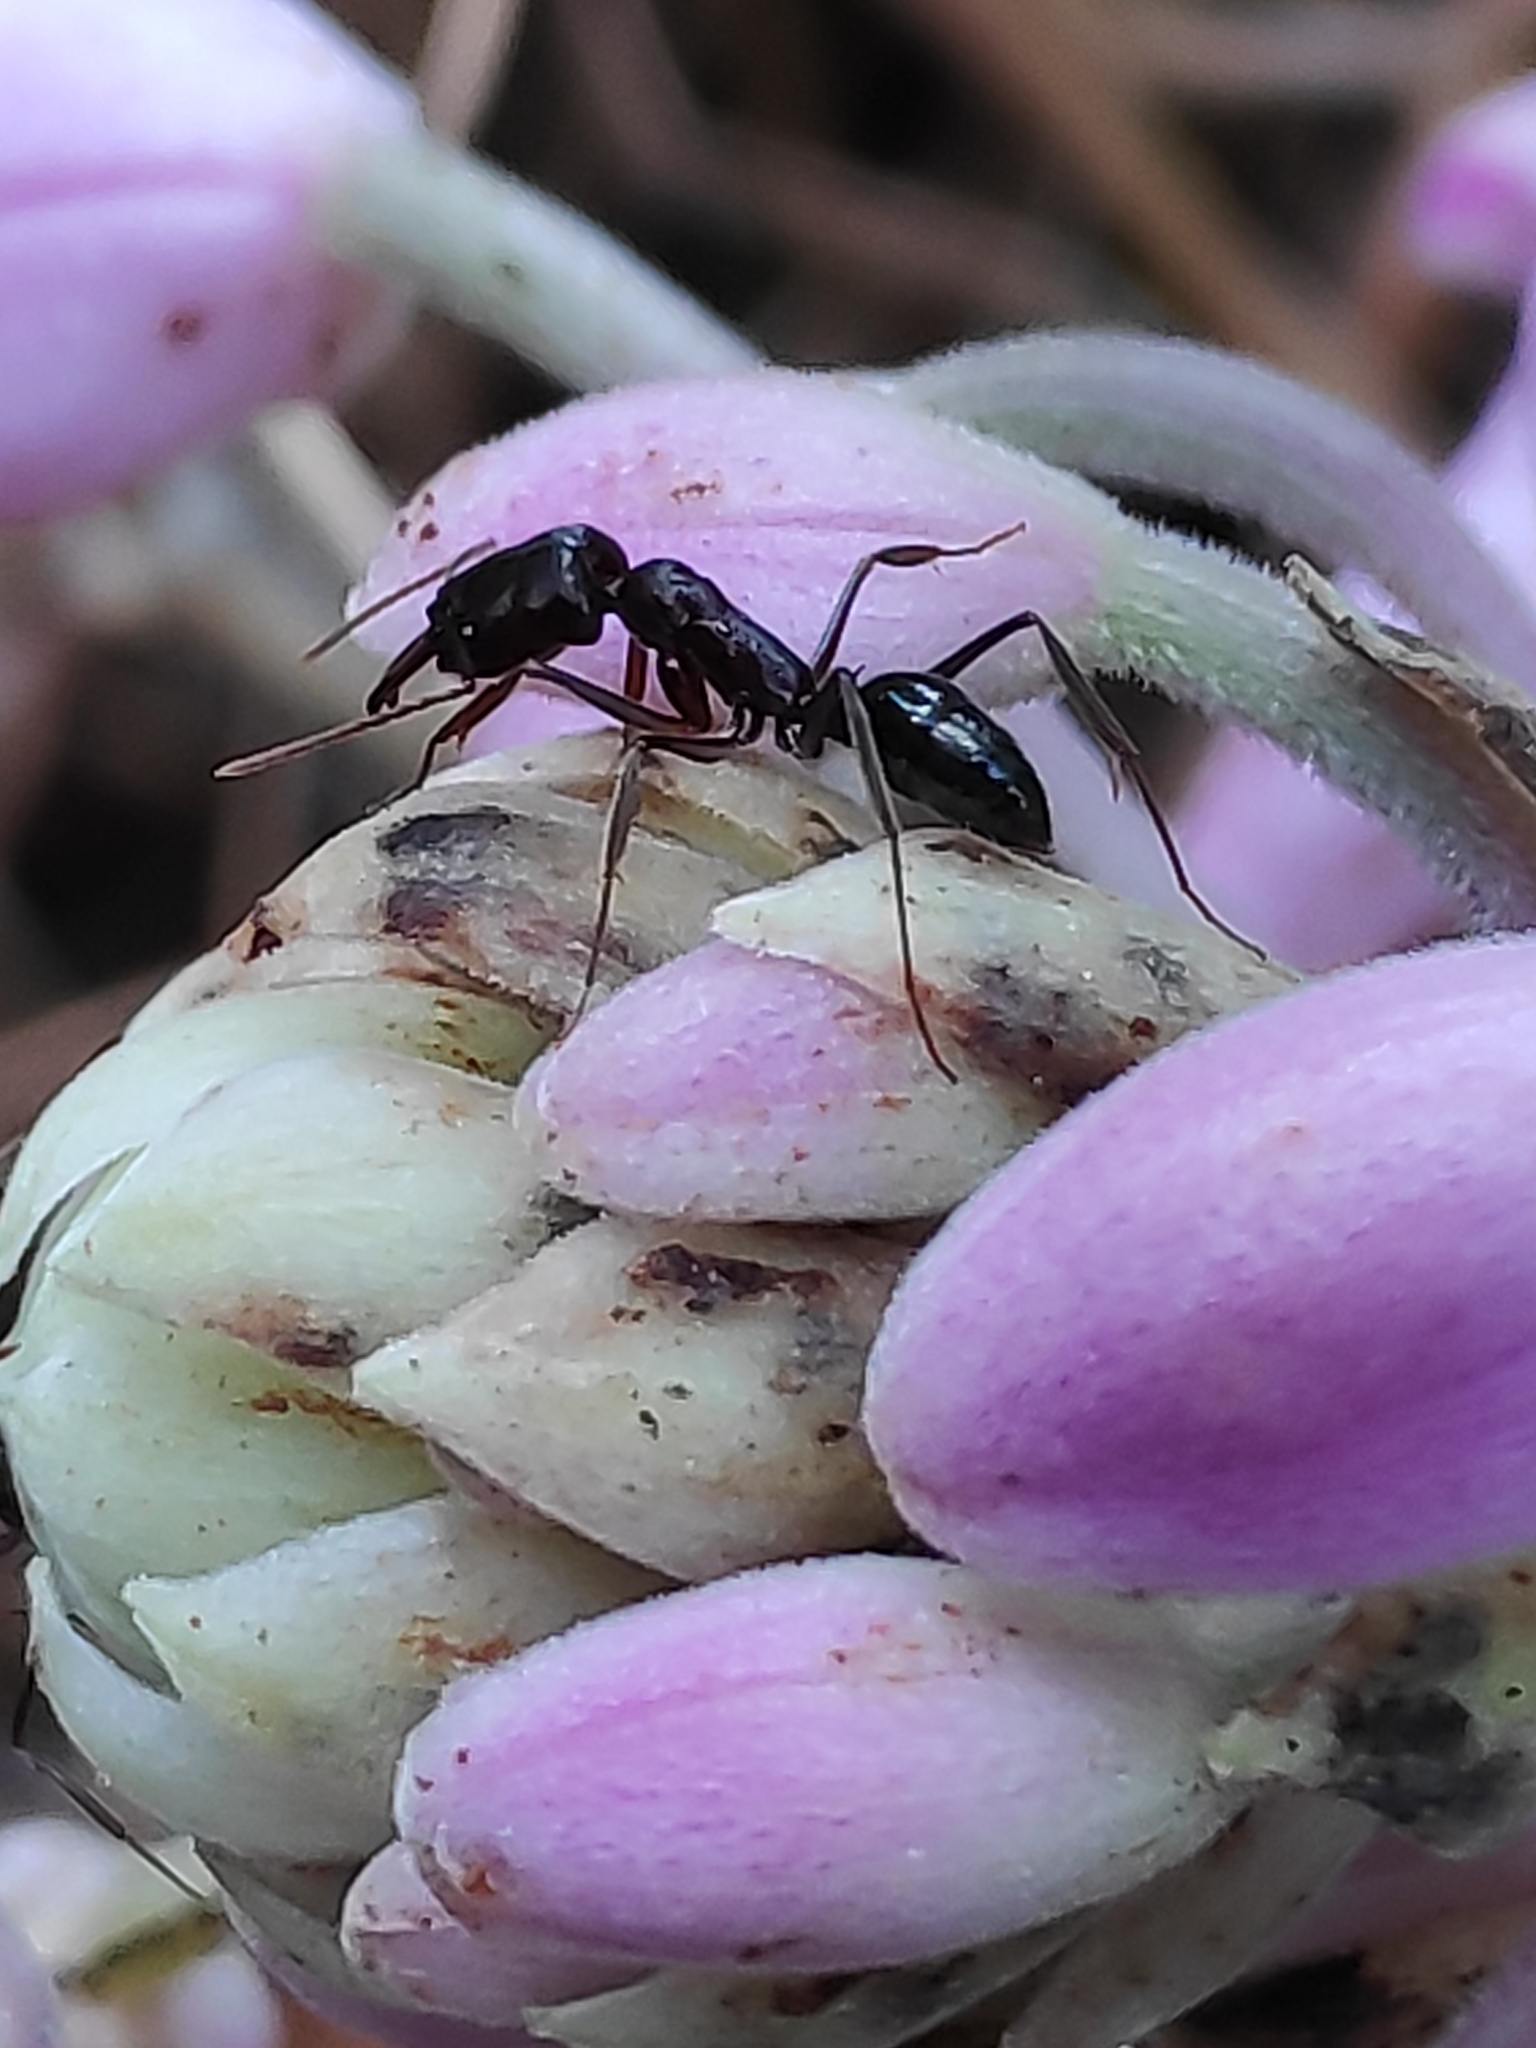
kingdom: Animalia
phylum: Arthropoda
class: Insecta
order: Hymenoptera
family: Formicidae
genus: Odontomachus
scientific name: Odontomachus simillimus
